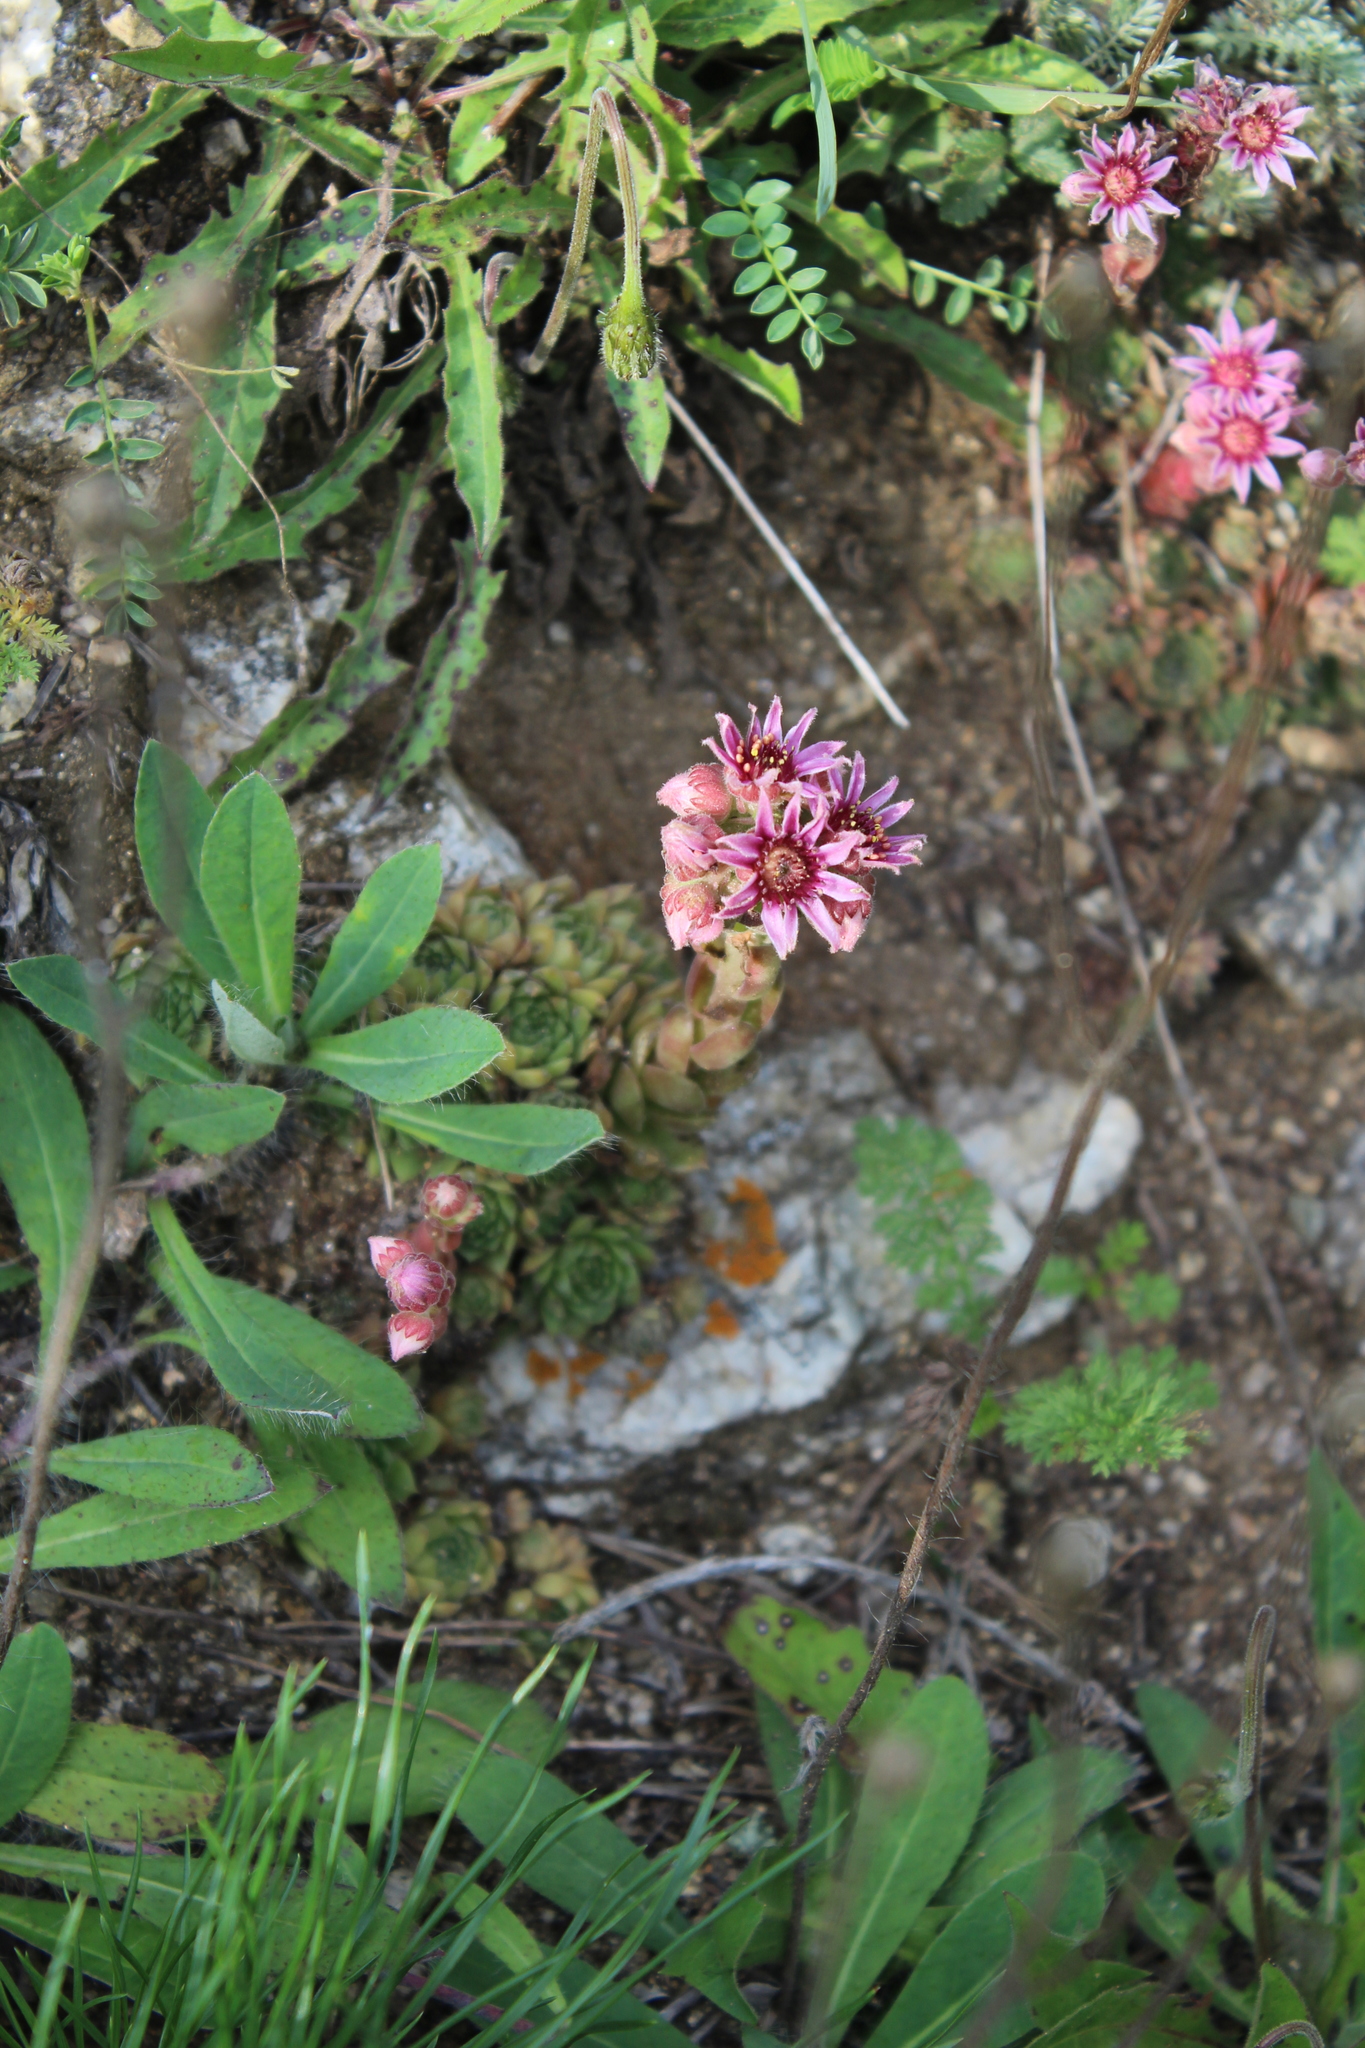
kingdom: Plantae
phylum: Tracheophyta
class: Magnoliopsida
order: Saxifragales
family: Crassulaceae
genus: Sempervivum
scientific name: Sempervivum caucasicum
